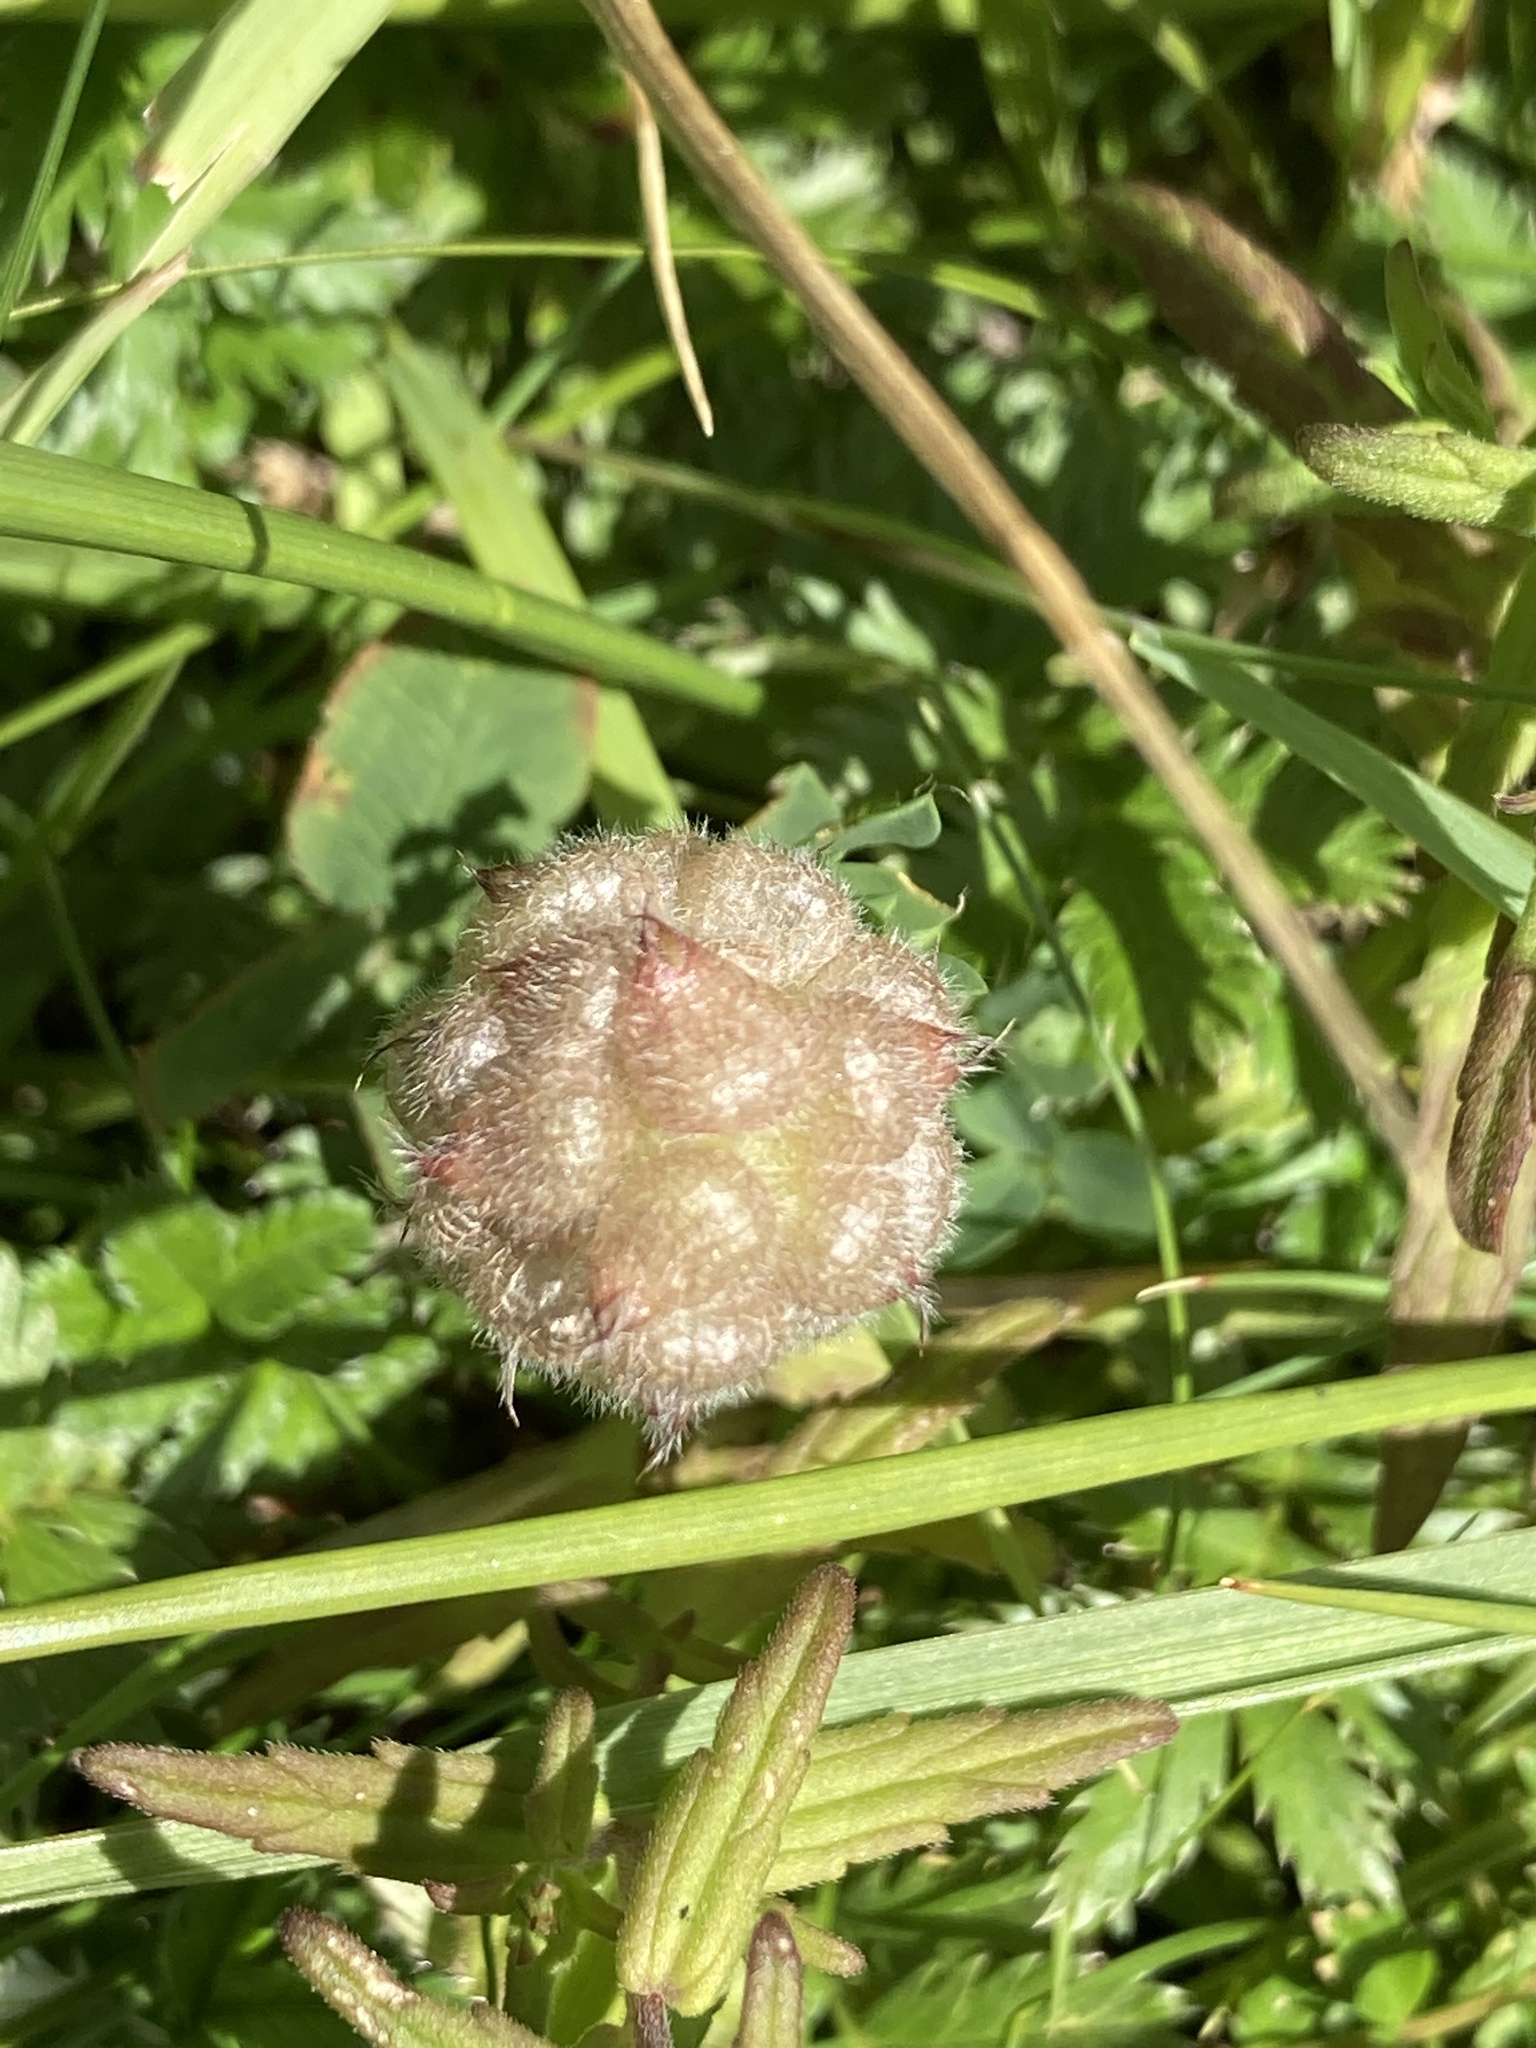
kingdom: Plantae
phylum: Tracheophyta
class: Magnoliopsida
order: Fabales
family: Fabaceae
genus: Trifolium
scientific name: Trifolium fragiferum
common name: Strawberry clover
